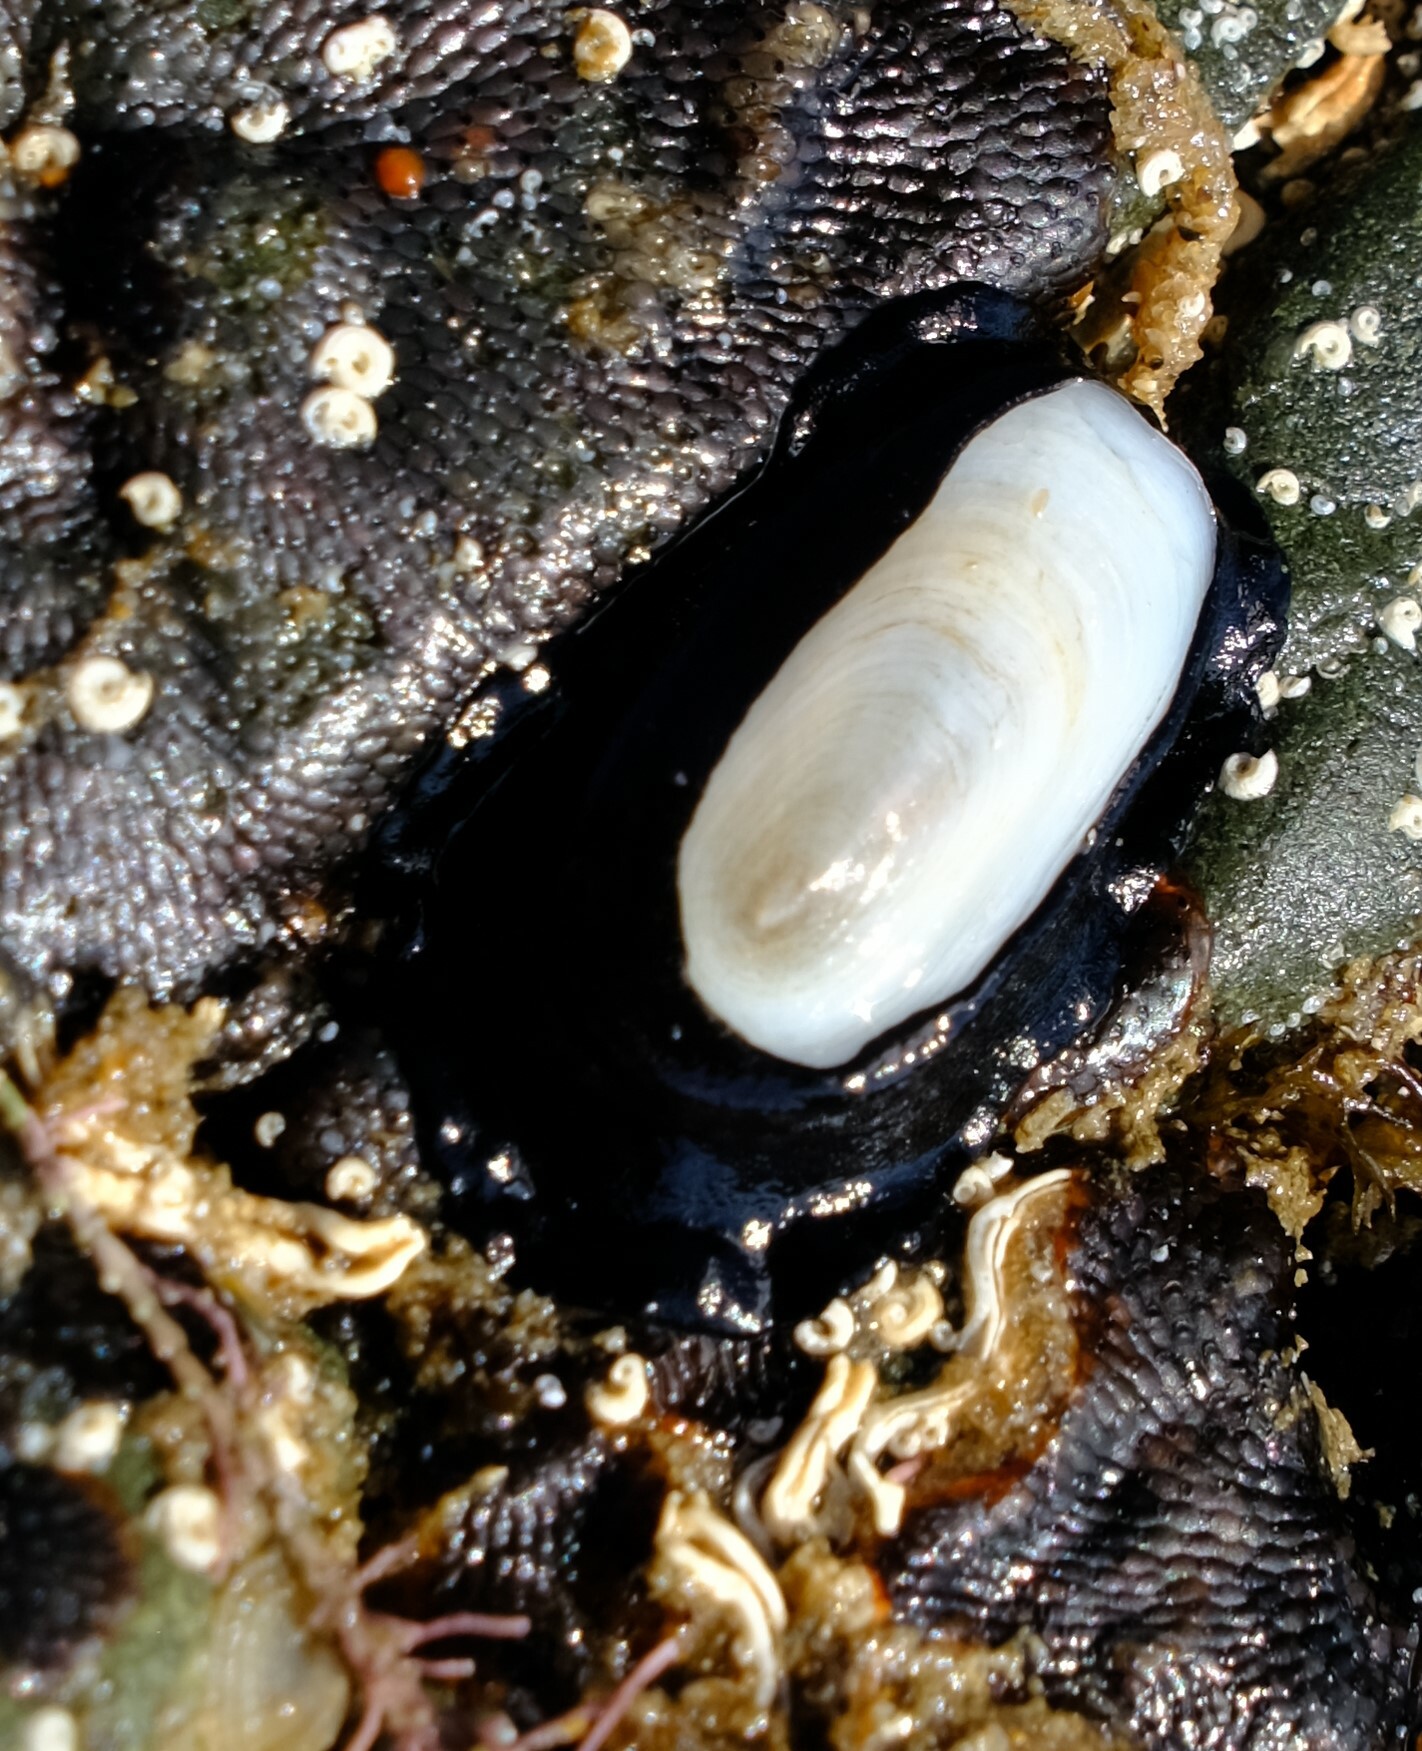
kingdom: Animalia
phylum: Mollusca
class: Gastropoda
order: Lepetellida
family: Fissurellidae
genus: Scutus
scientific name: Scutus antipodes
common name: Duckbill shell
